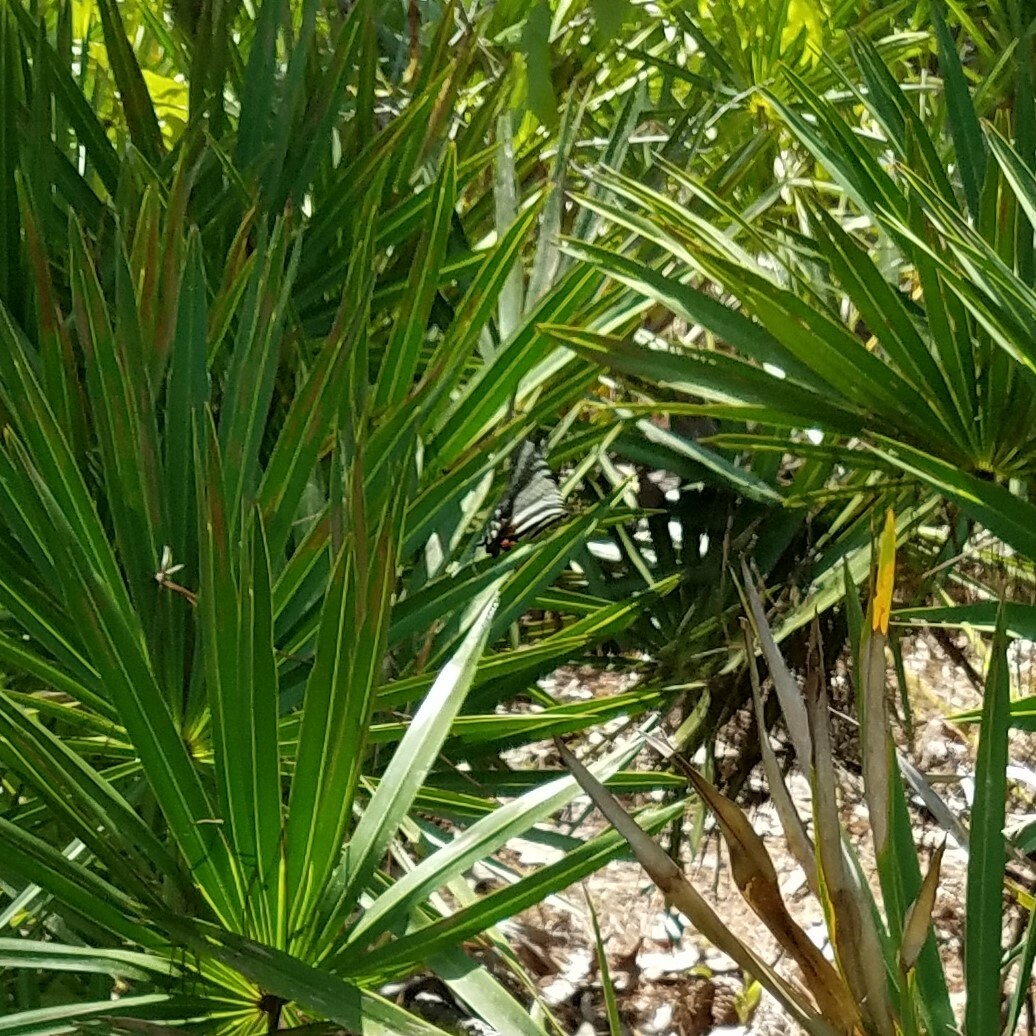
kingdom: Animalia
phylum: Arthropoda
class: Insecta
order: Lepidoptera
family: Papilionidae
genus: Protographium
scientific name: Protographium marcellus
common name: Zebra swallowtail
